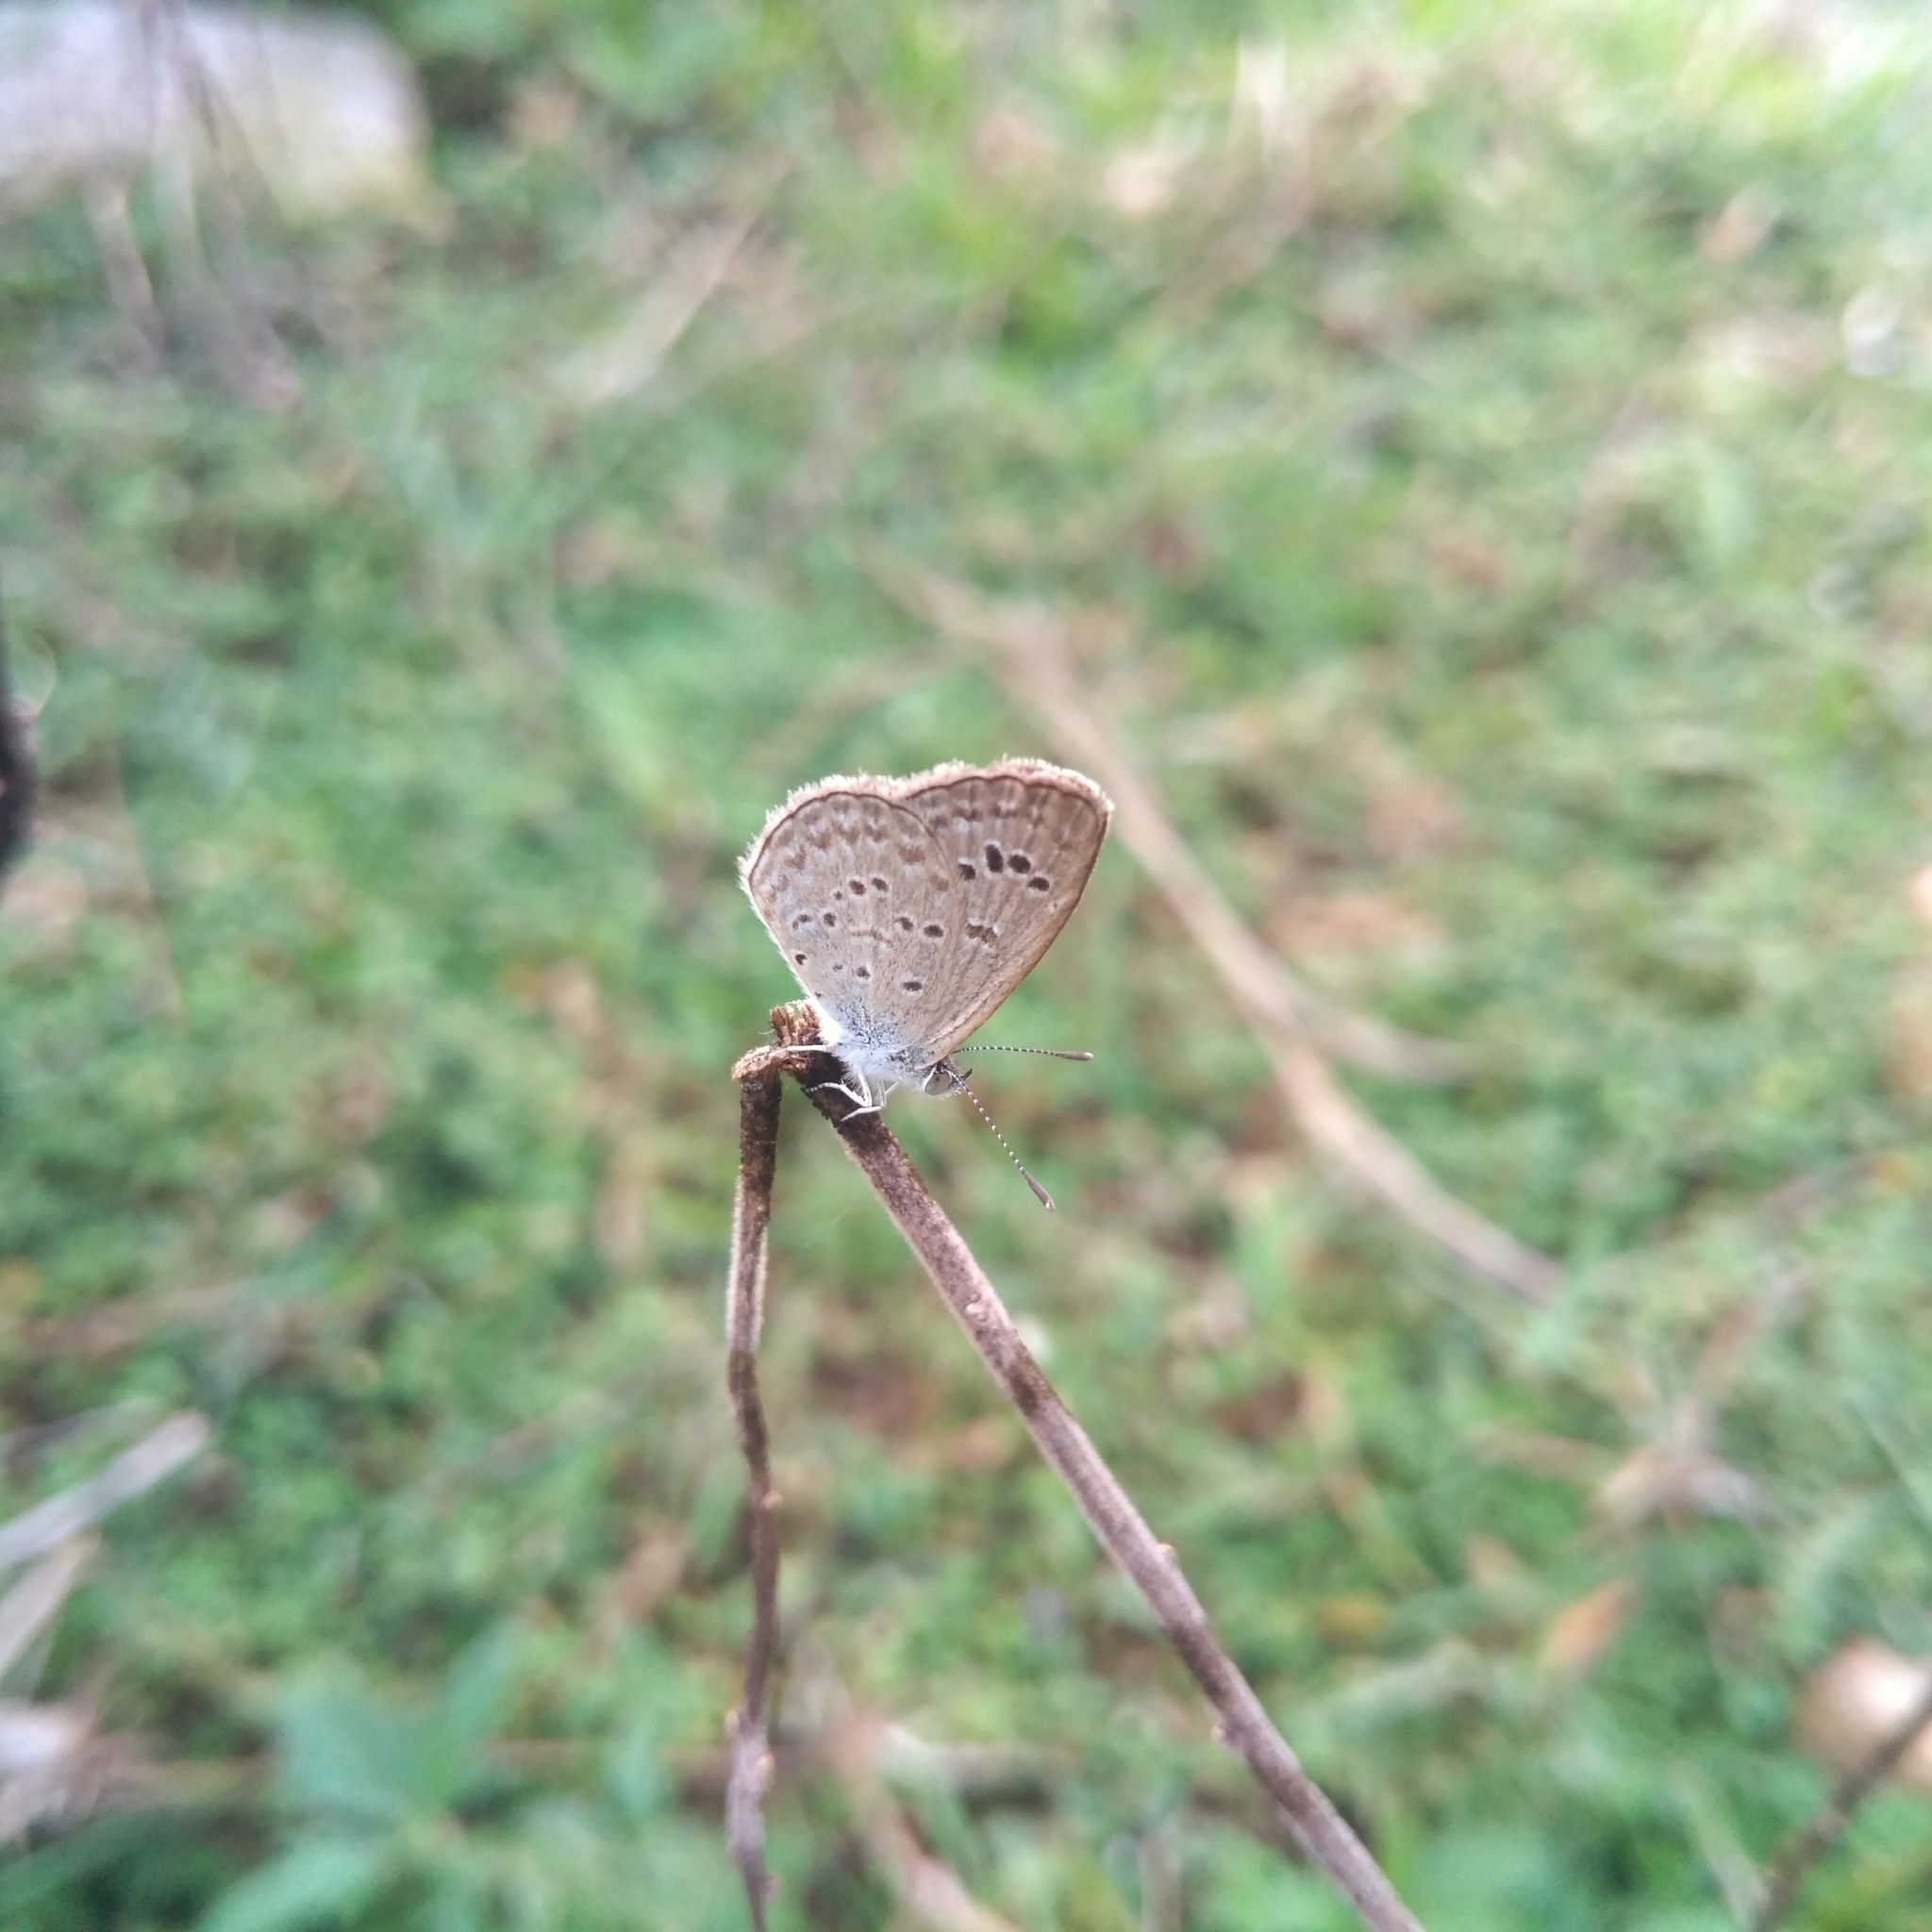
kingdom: Animalia
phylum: Arthropoda
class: Insecta
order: Lepidoptera
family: Lycaenidae
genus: Zizina
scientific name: Zizina otis
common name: Lesser grass blue
